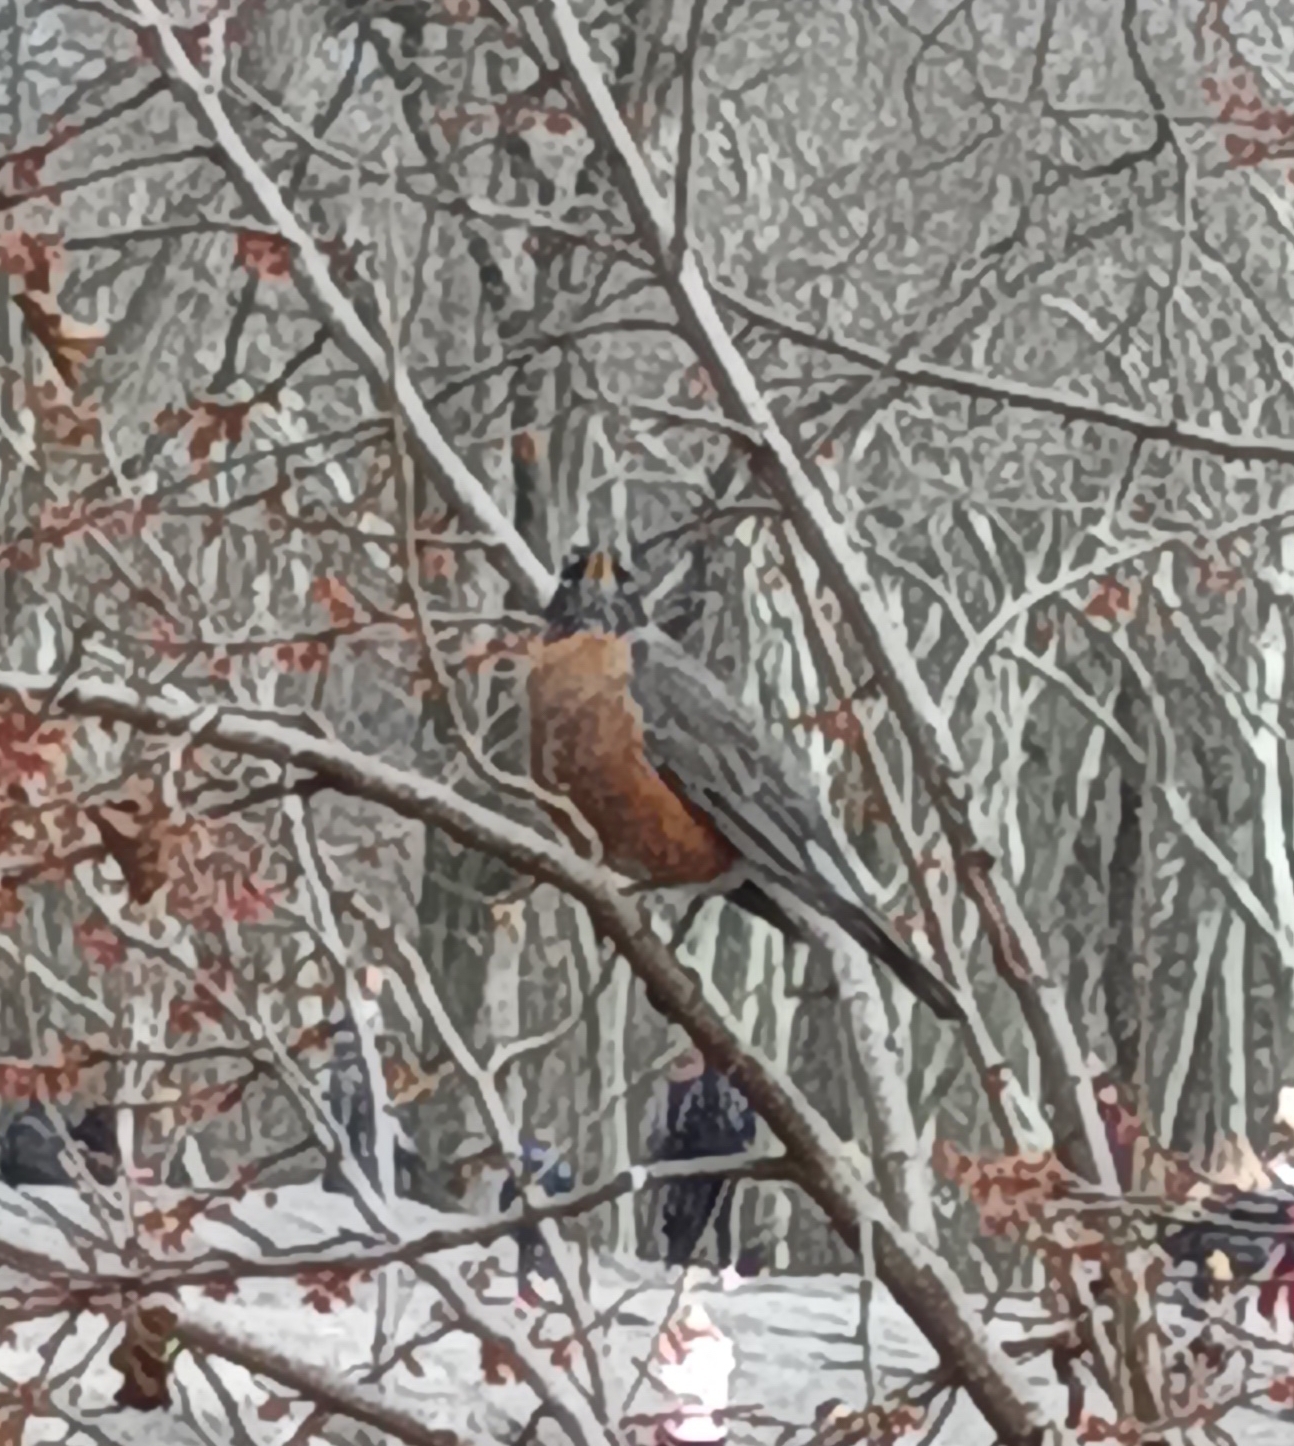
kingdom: Animalia
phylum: Chordata
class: Aves
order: Passeriformes
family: Turdidae
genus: Turdus
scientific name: Turdus migratorius
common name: American robin
